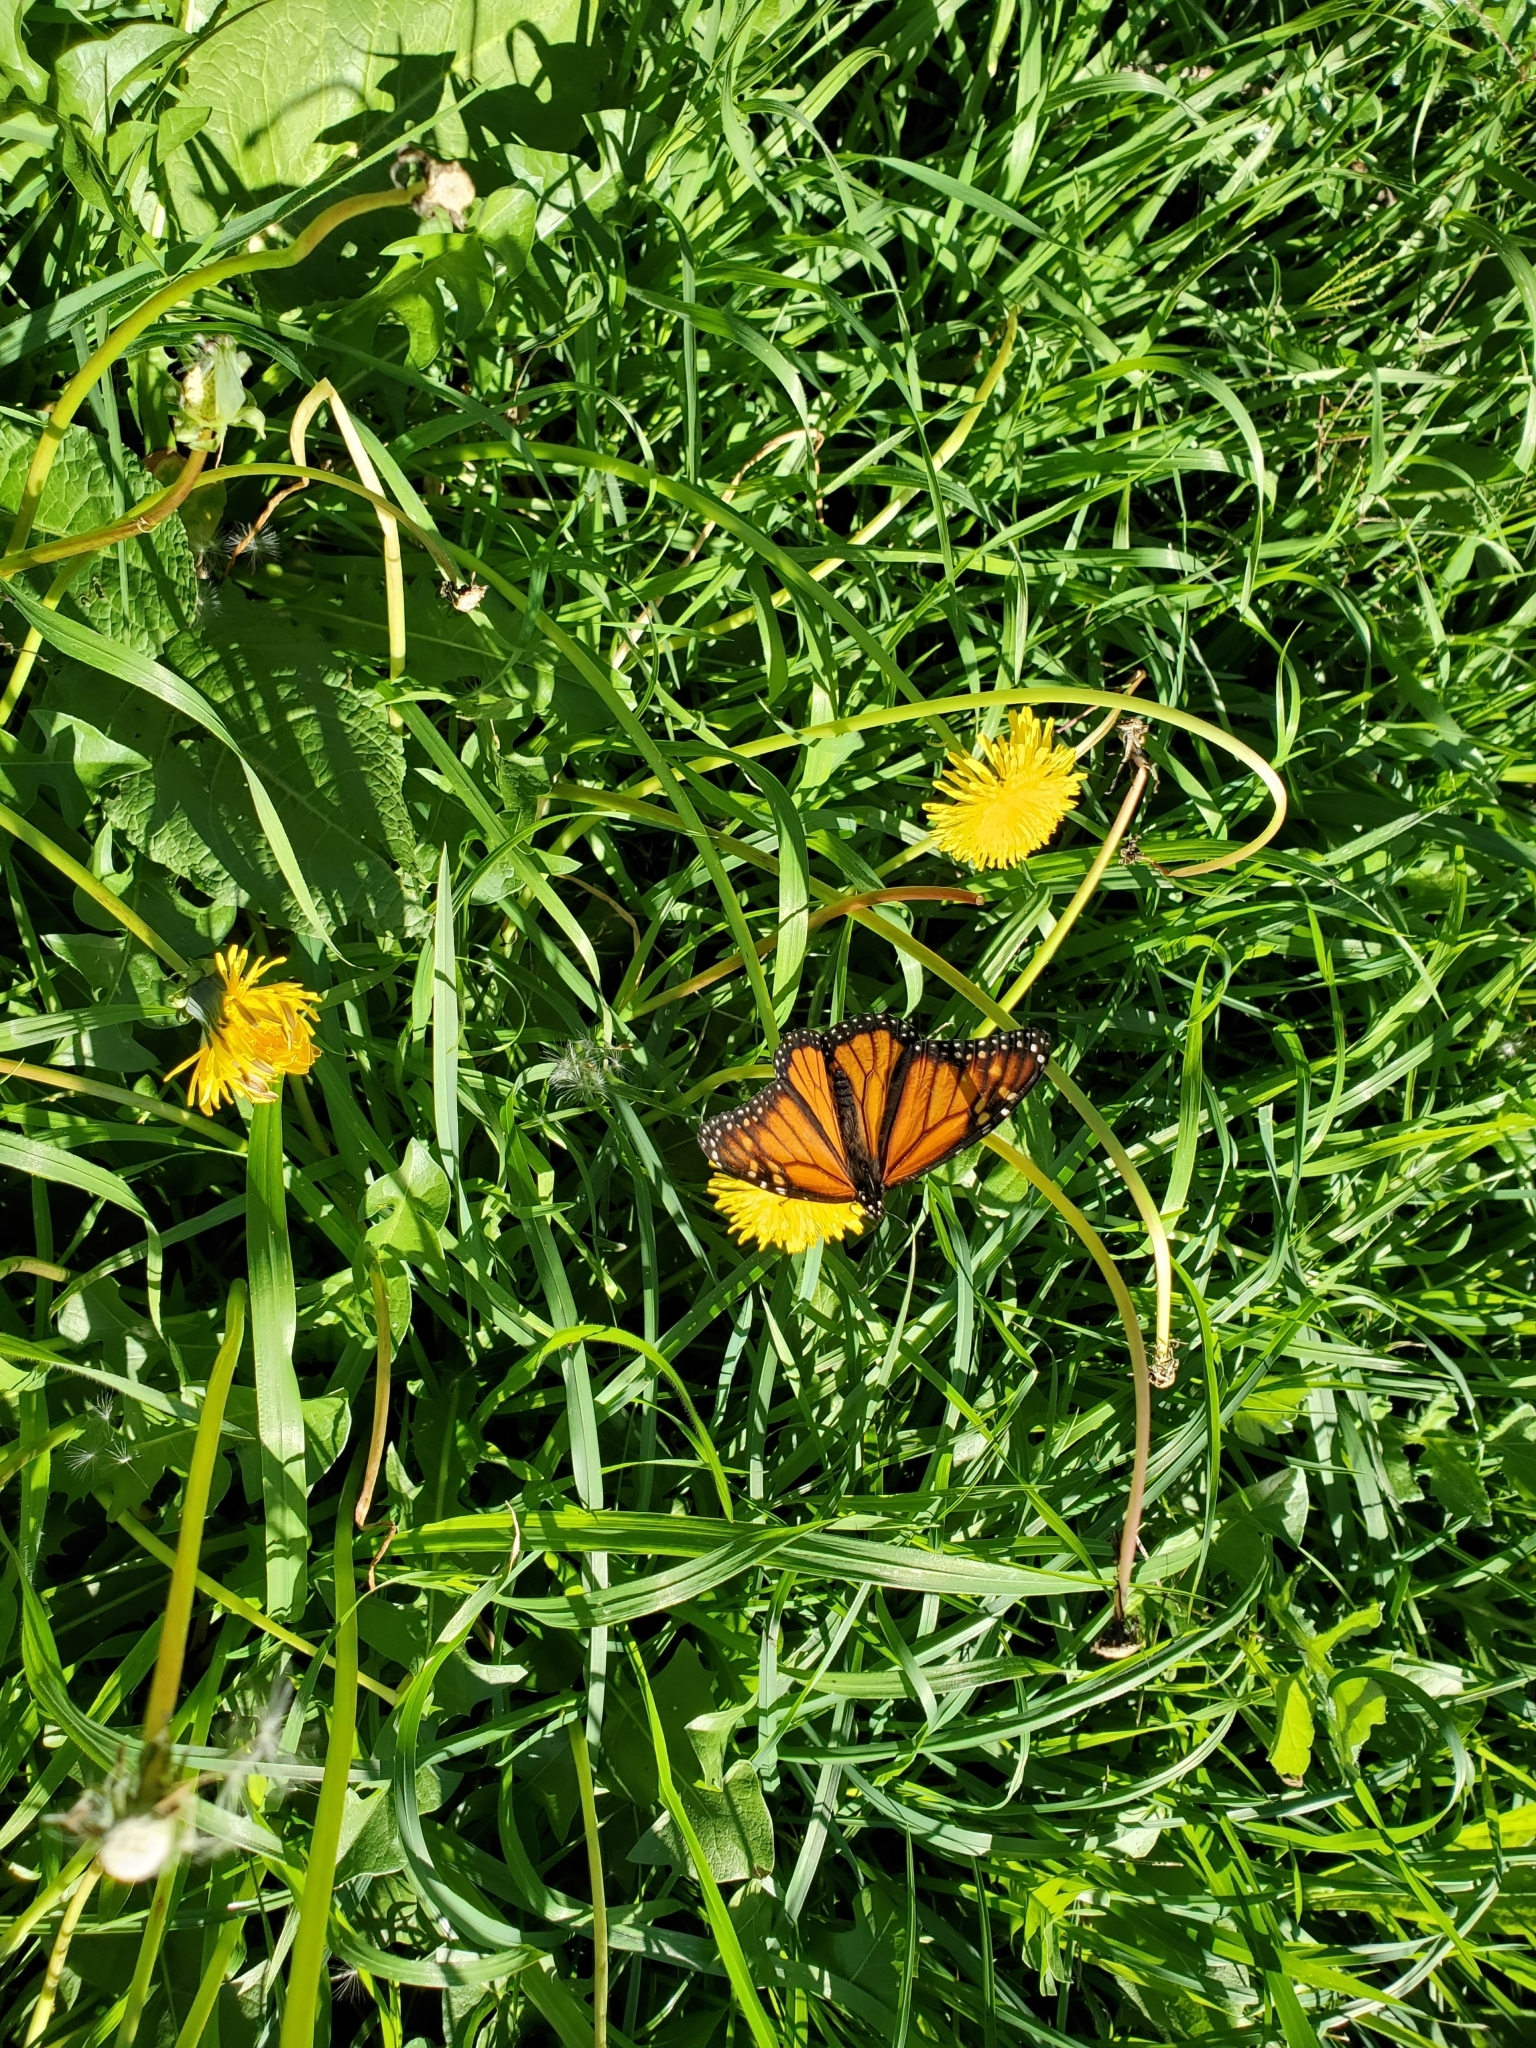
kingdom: Animalia
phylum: Arthropoda
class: Insecta
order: Lepidoptera
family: Nymphalidae
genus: Danaus
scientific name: Danaus plexippus
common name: Monarch
